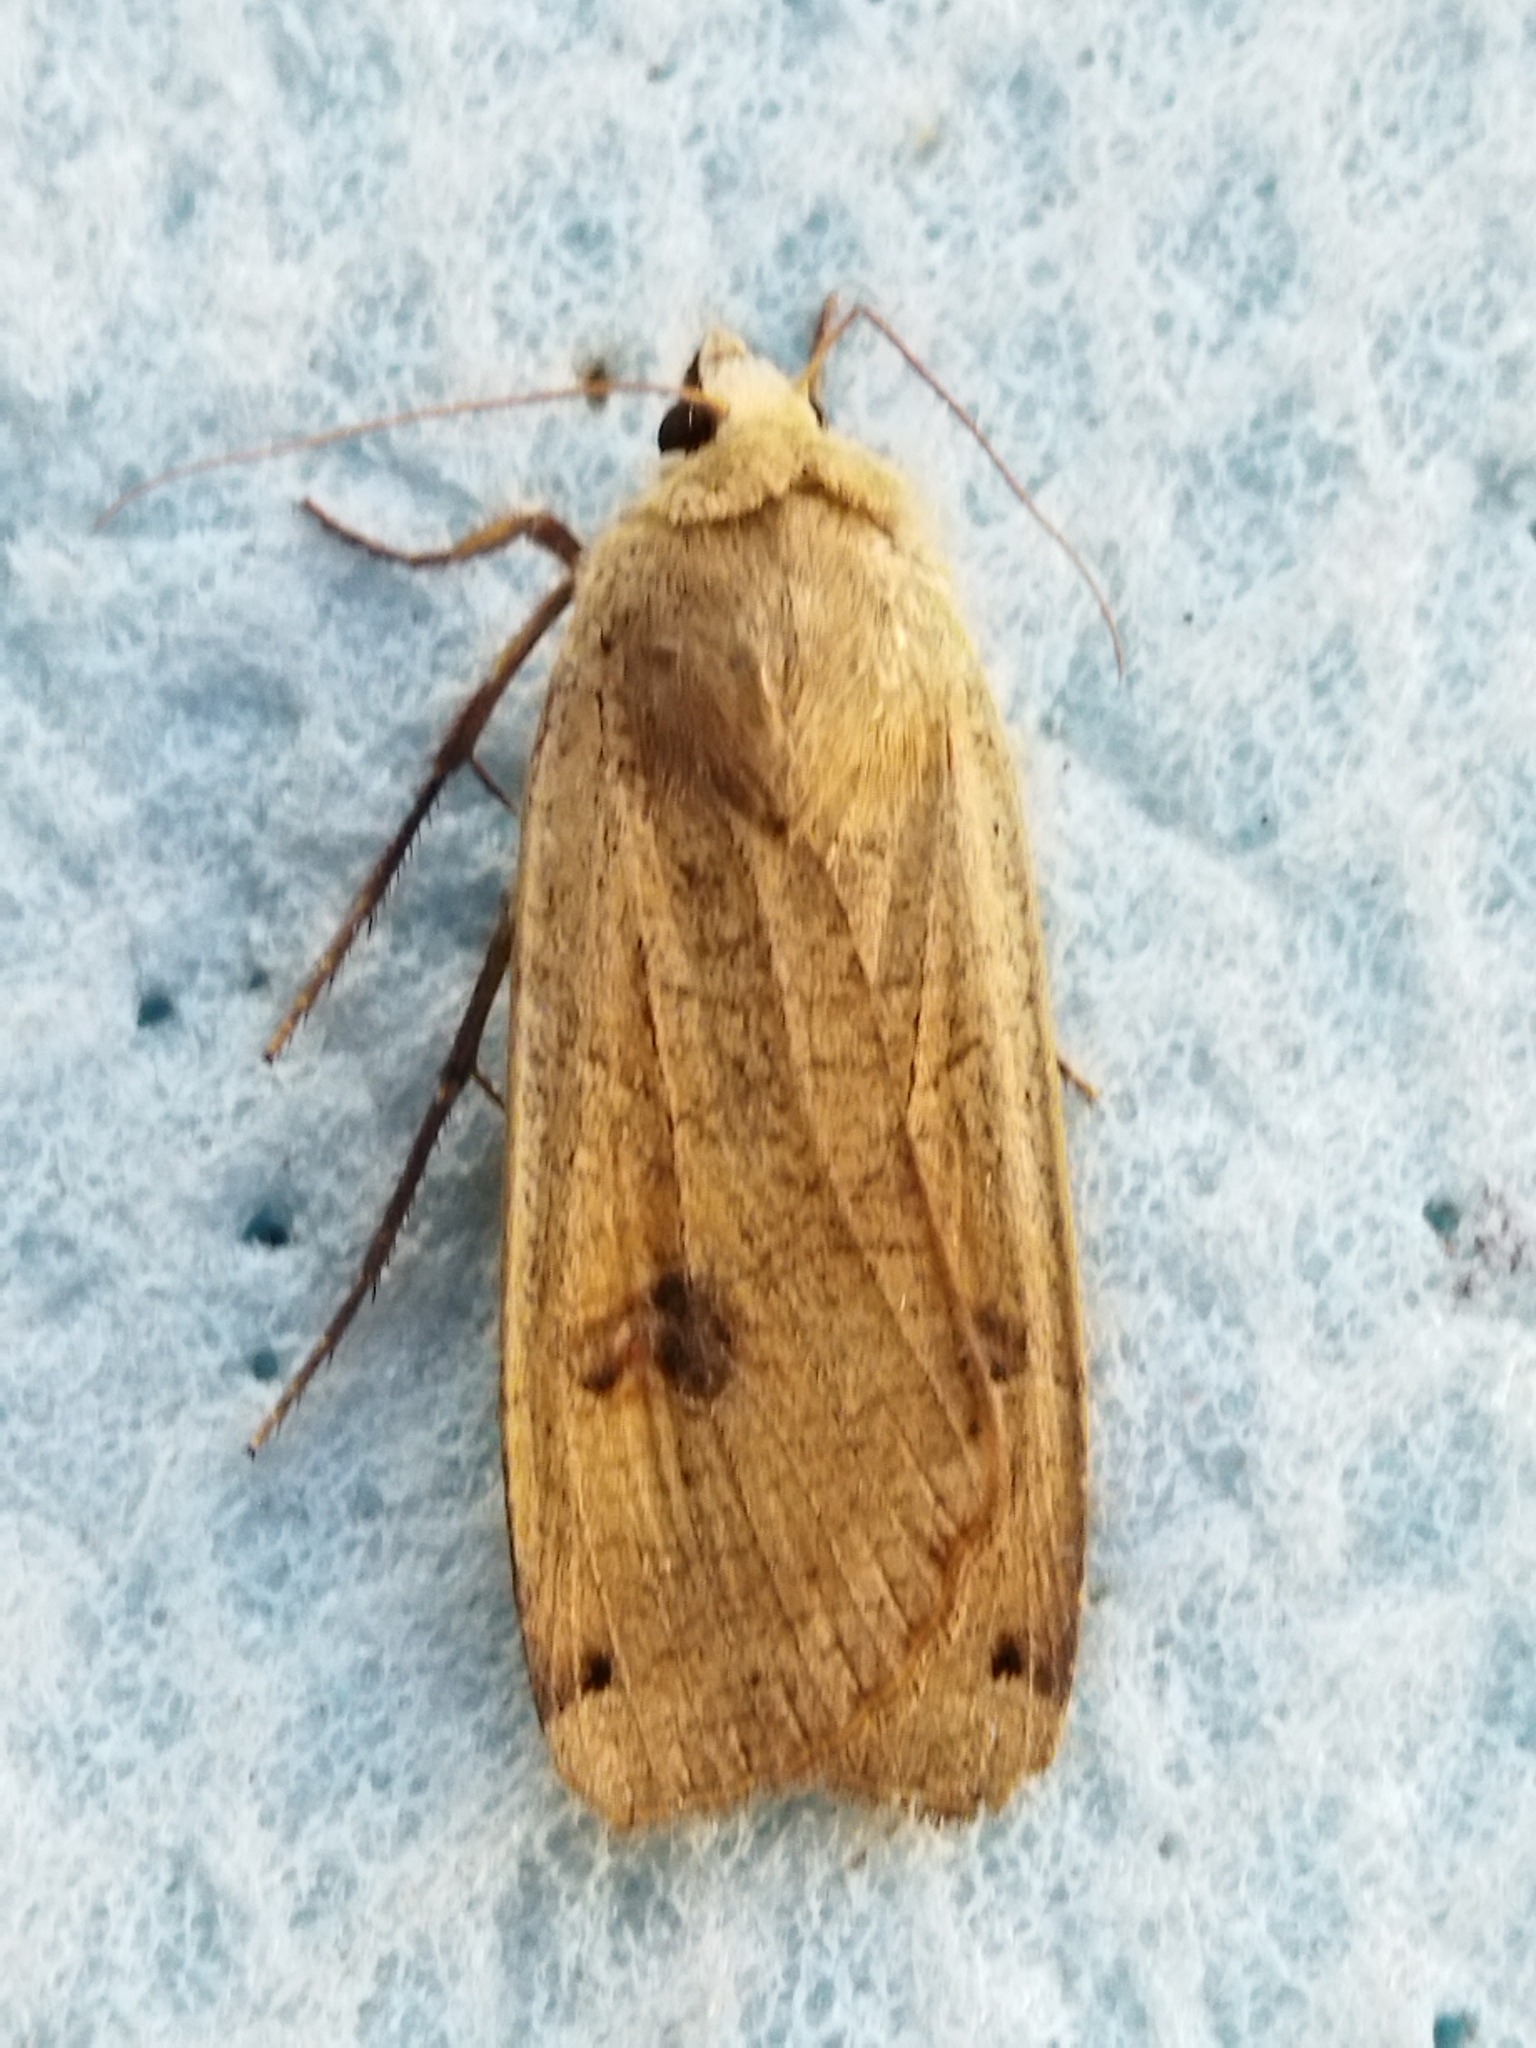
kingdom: Animalia
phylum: Arthropoda
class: Insecta
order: Lepidoptera
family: Noctuidae
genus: Noctua
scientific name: Noctua pronuba
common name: Large yellow underwing
